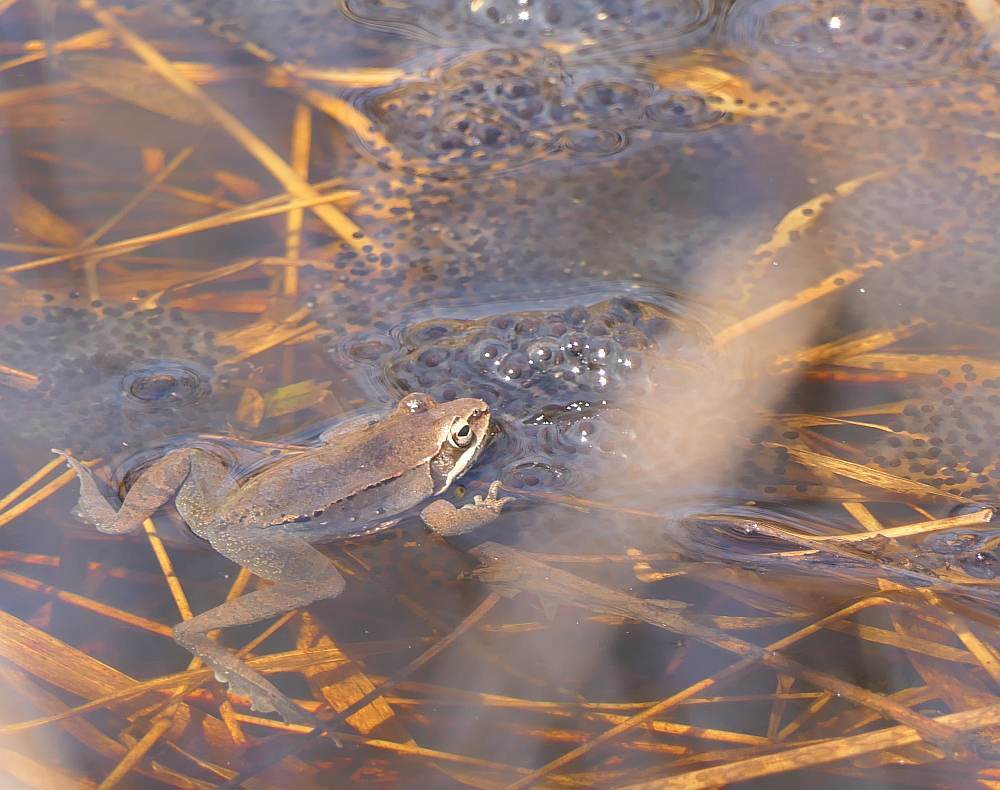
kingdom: Animalia
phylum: Chordata
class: Amphibia
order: Anura
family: Ranidae
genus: Lithobates
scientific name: Lithobates sylvaticus
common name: Wood frog
